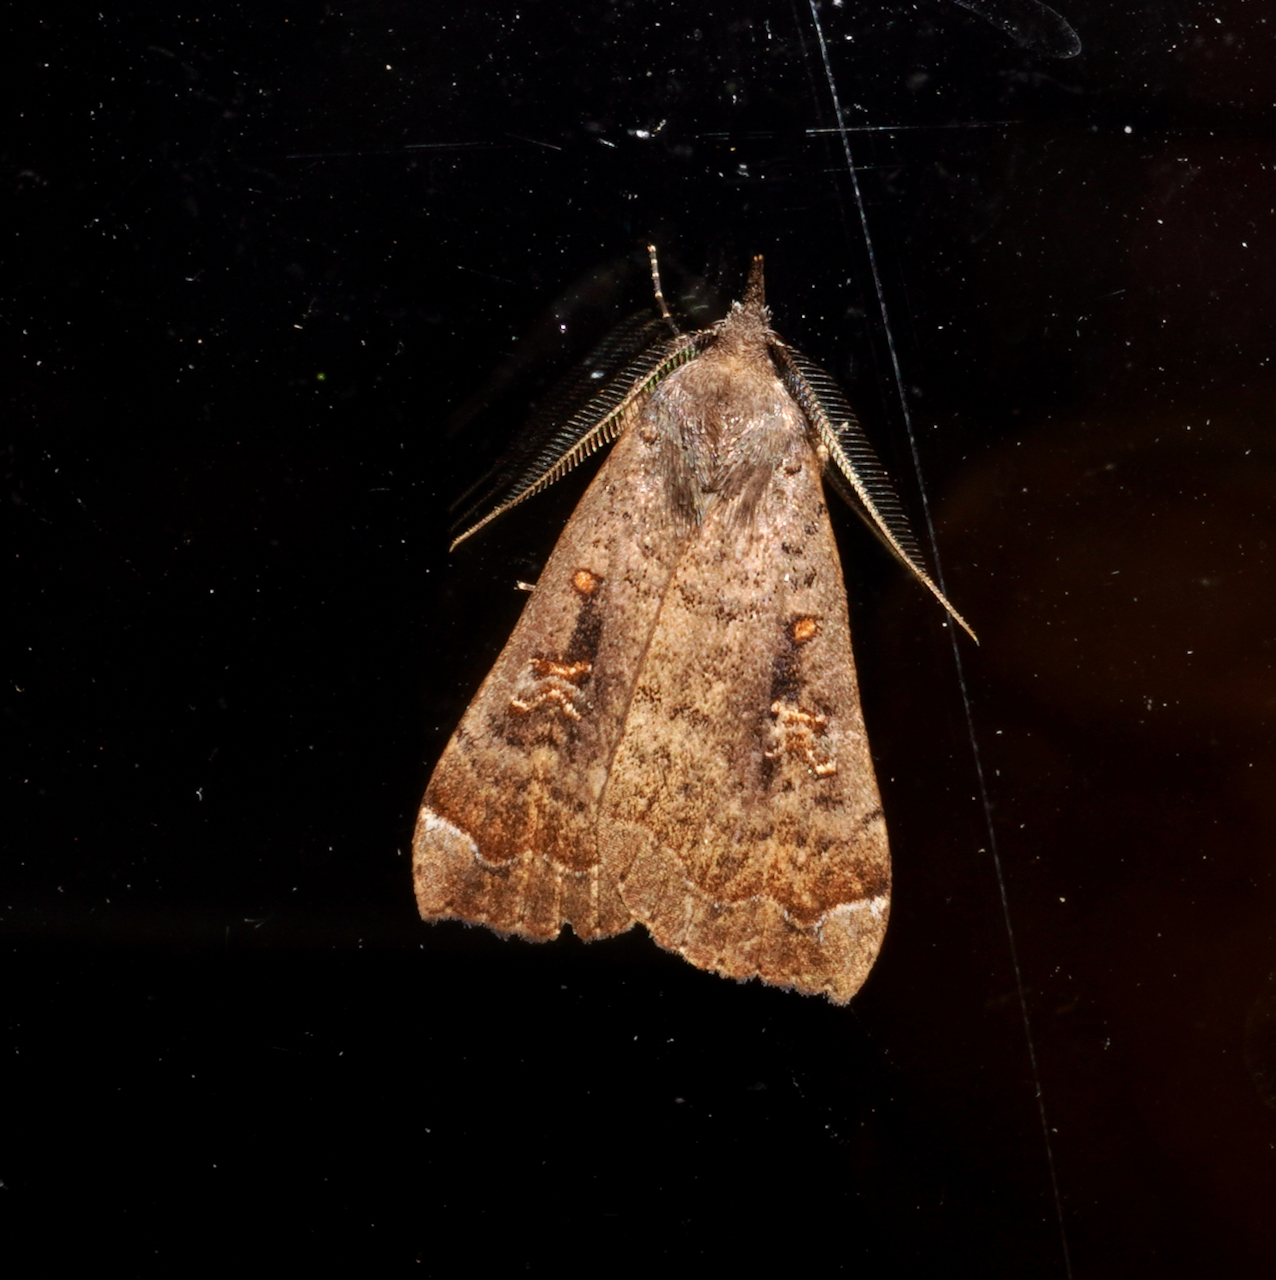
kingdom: Animalia
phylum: Arthropoda
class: Insecta
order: Lepidoptera
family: Erebidae
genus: Rhapsa
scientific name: Rhapsa scotosialis
